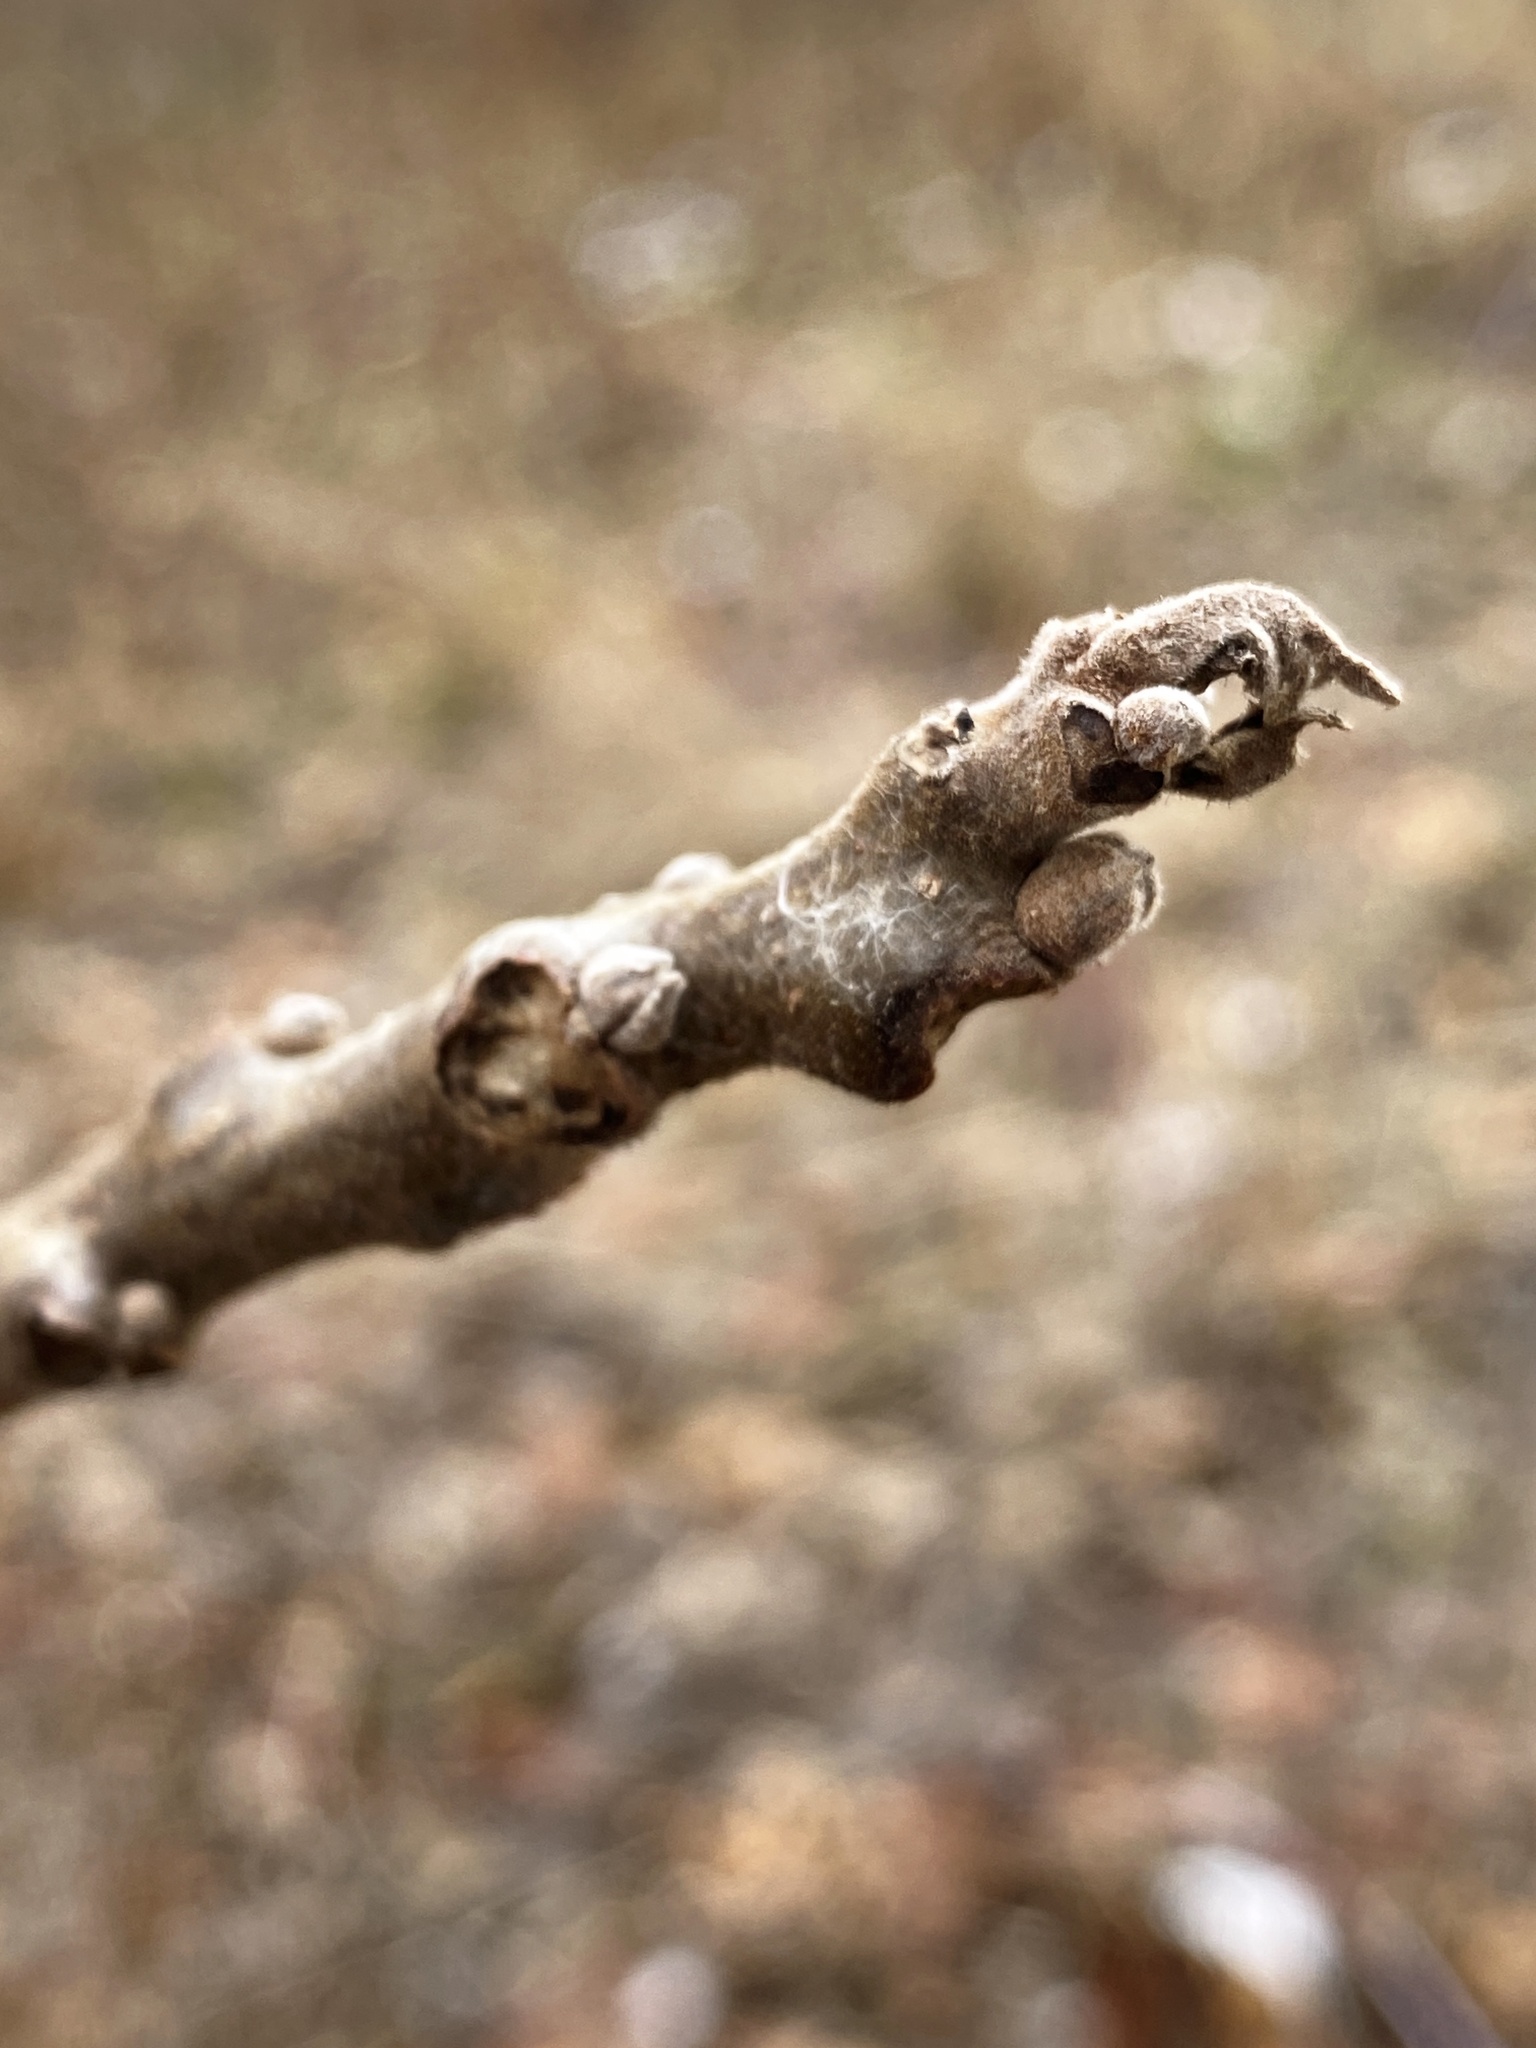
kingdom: Plantae
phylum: Tracheophyta
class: Magnoliopsida
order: Fagales
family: Juglandaceae
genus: Juglans
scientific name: Juglans nigra
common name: Black walnut
